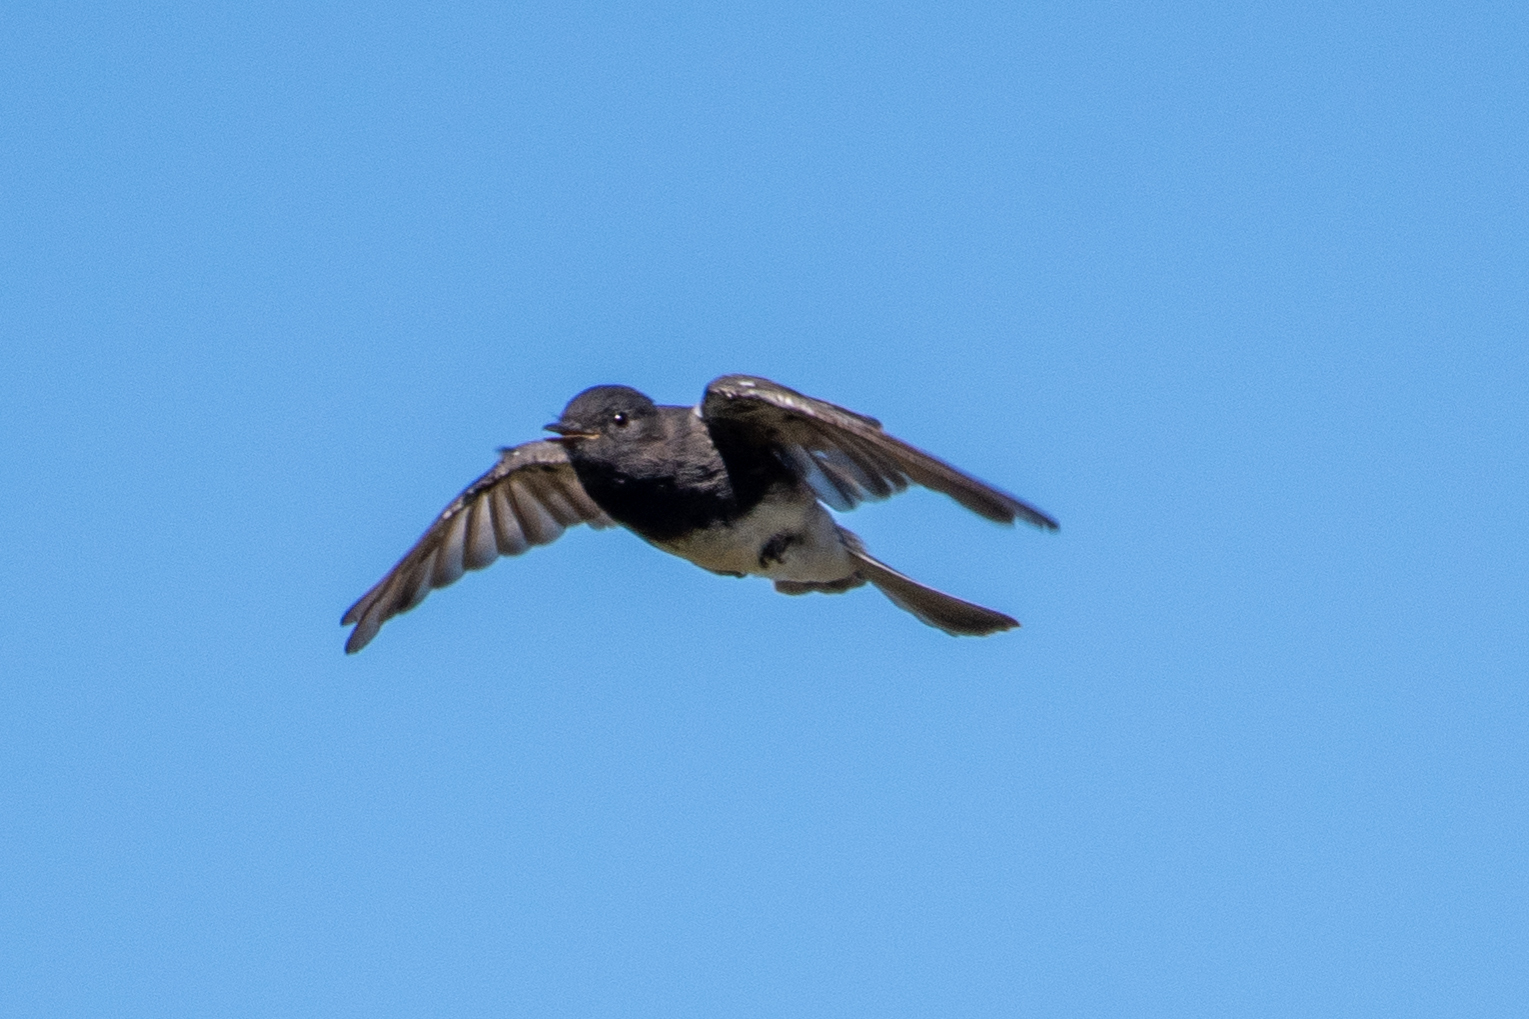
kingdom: Animalia
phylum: Chordata
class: Aves
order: Passeriformes
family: Tyrannidae
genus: Sayornis
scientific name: Sayornis nigricans
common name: Black phoebe
